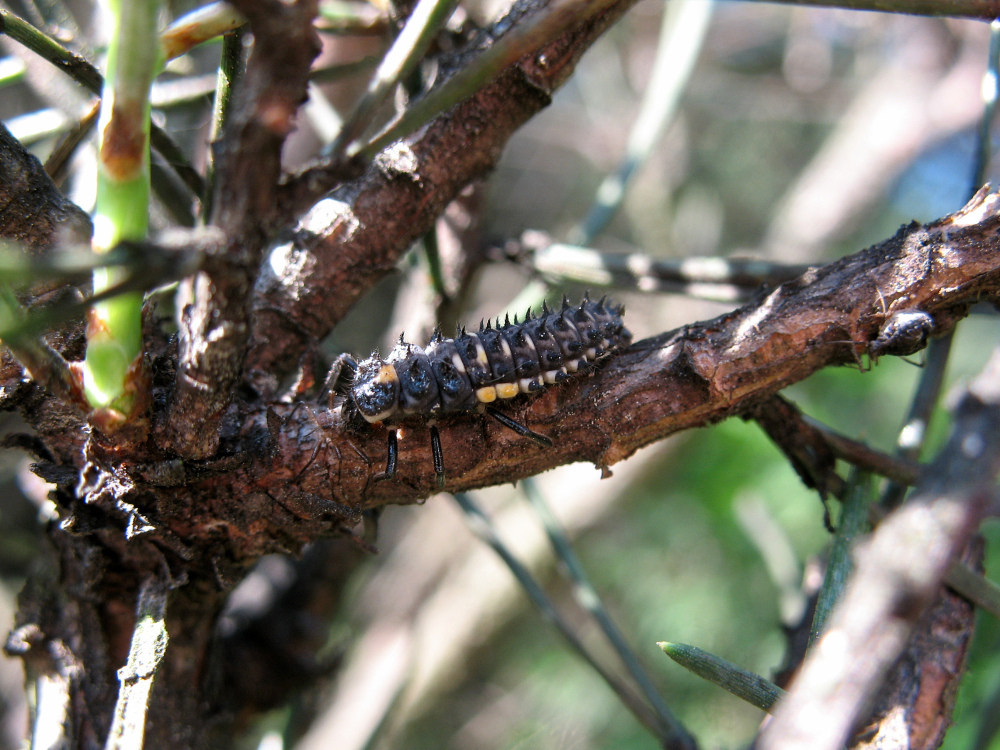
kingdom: Animalia
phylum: Arthropoda
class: Insecta
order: Coleoptera
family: Coccinellidae
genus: Anatis
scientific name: Anatis ocellata
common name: Eyed ladybird
